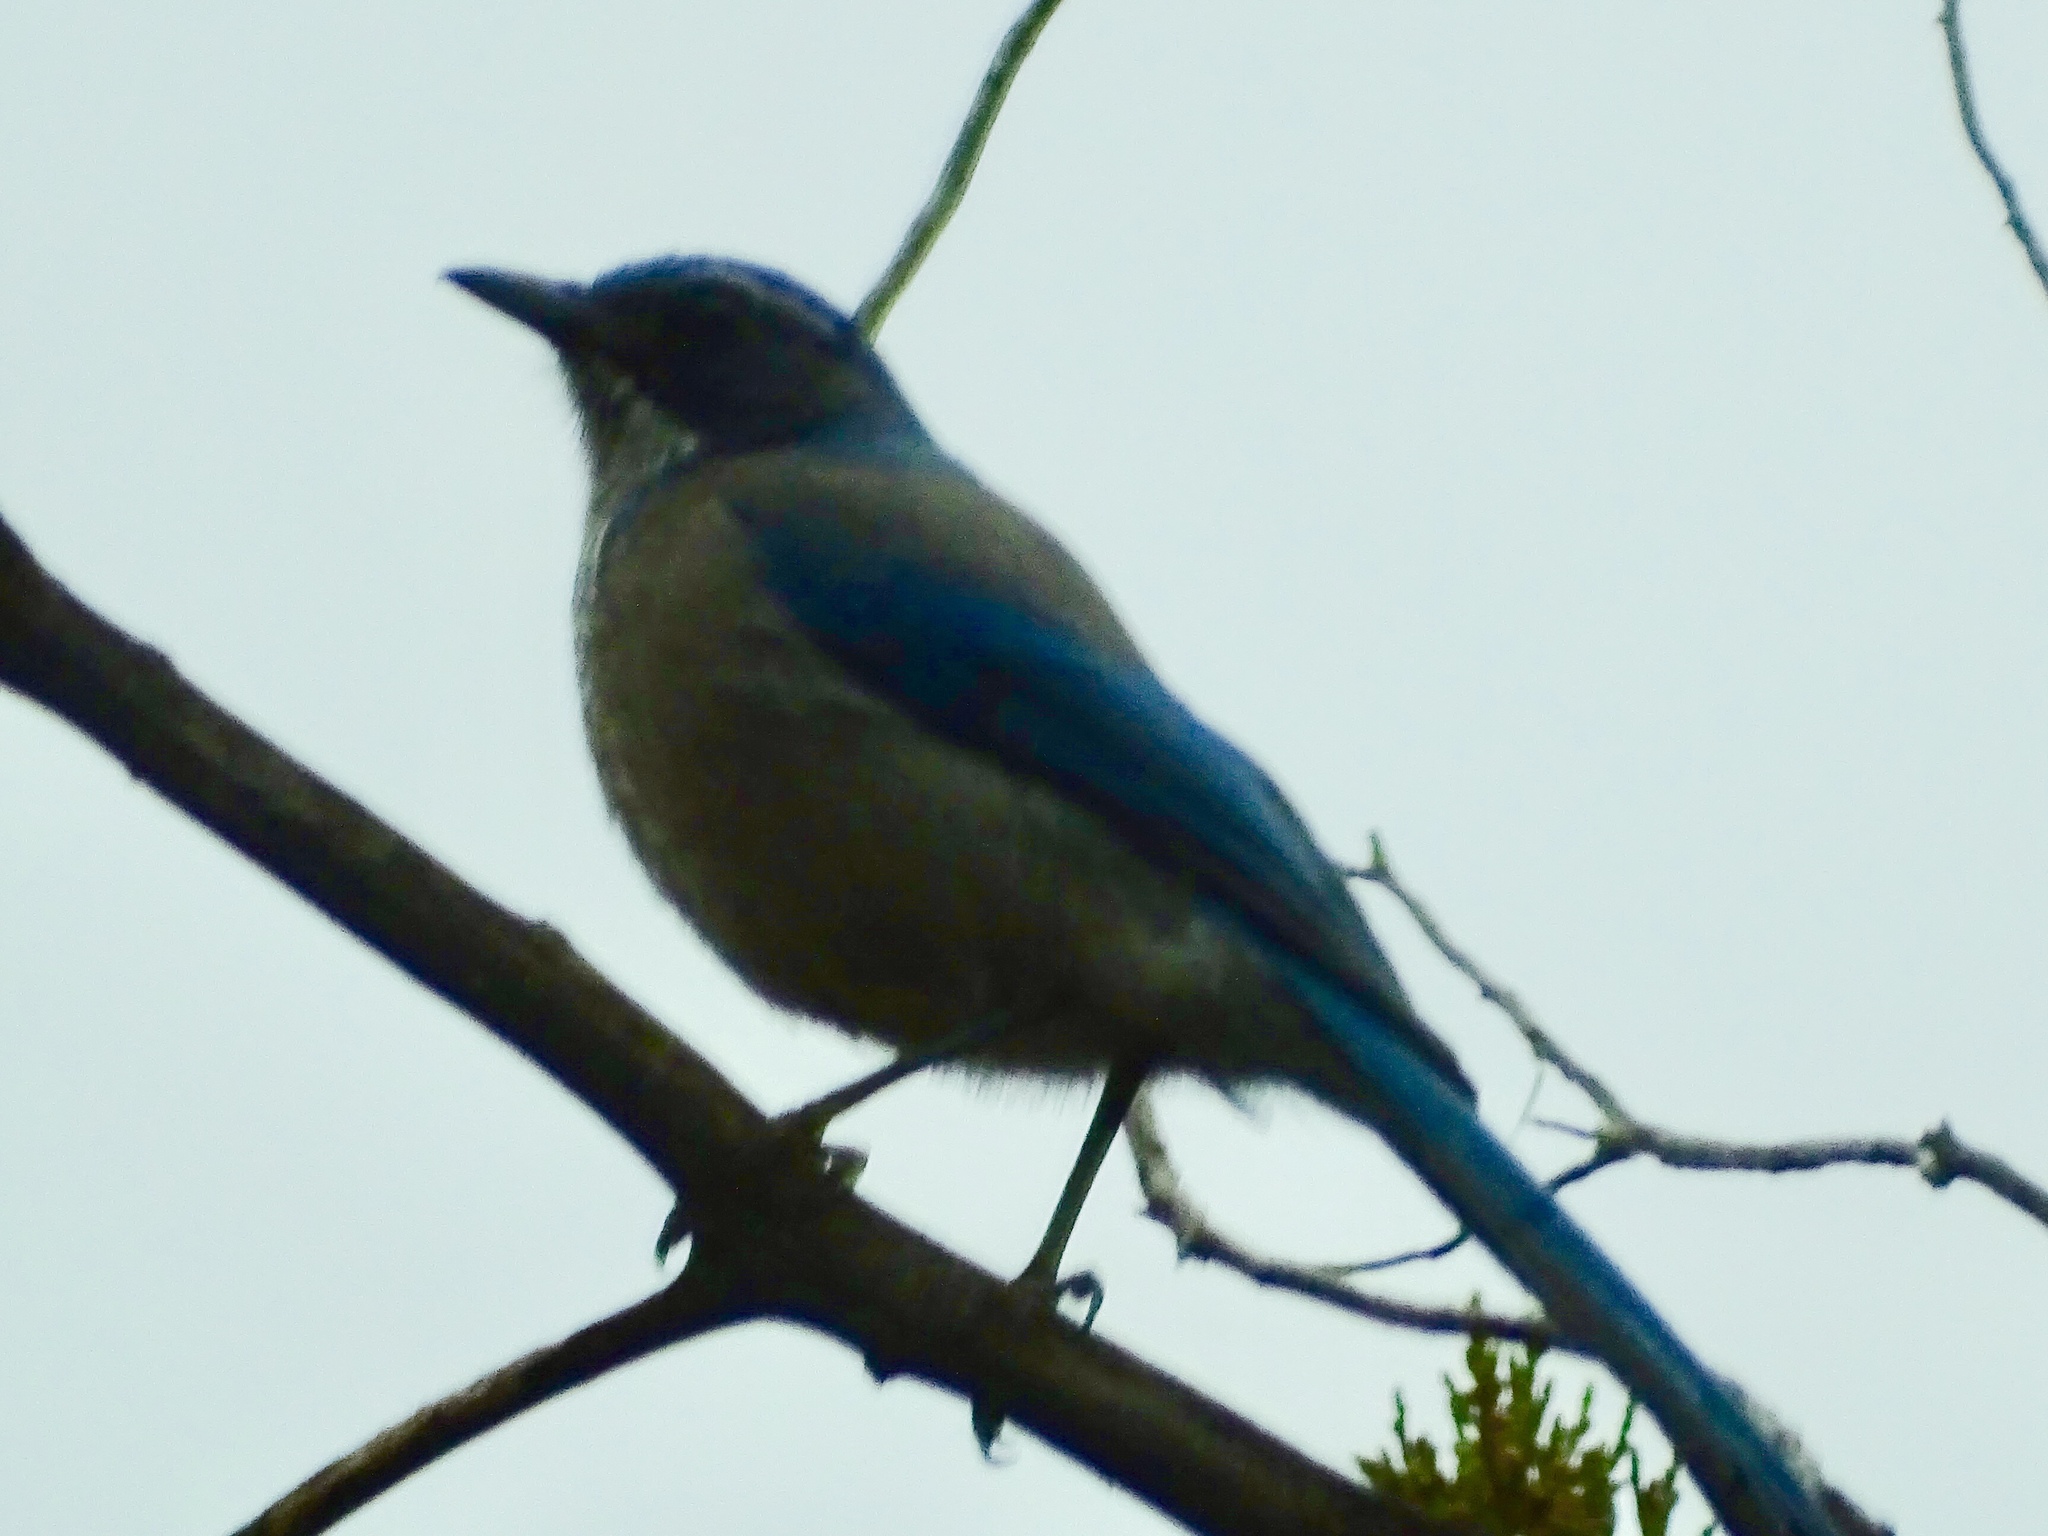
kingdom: Animalia
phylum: Chordata
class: Aves
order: Passeriformes
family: Corvidae
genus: Aphelocoma
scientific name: Aphelocoma woodhouseii
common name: Woodhouse's scrub-jay
